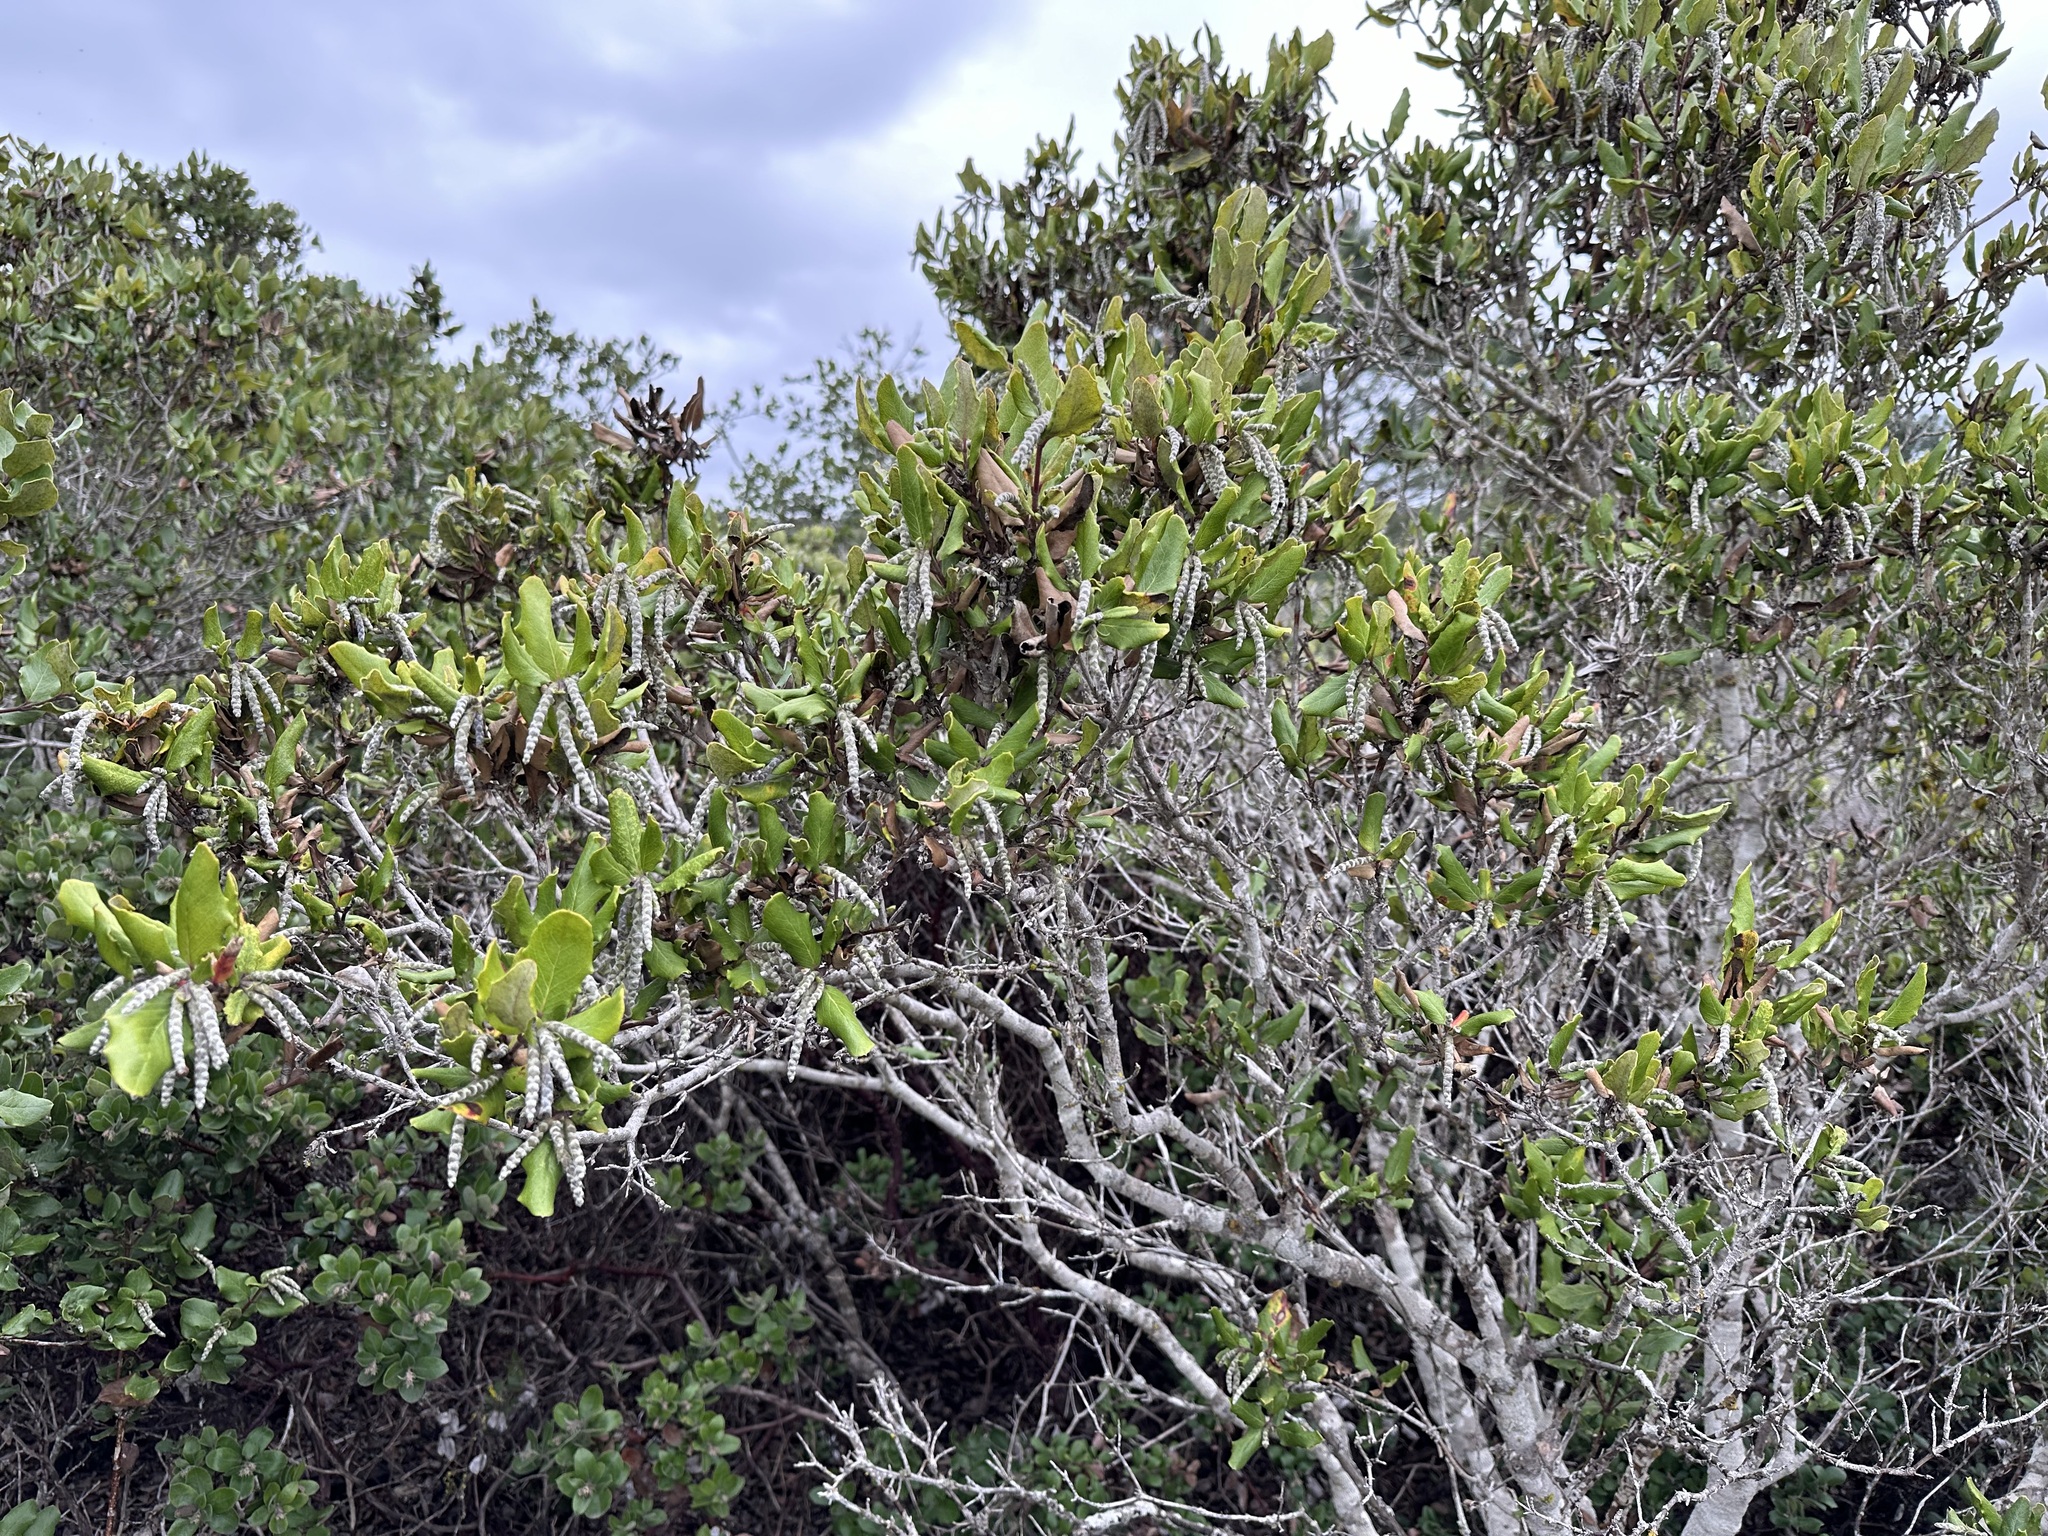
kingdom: Plantae
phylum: Tracheophyta
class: Magnoliopsida
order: Garryales
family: Garryaceae
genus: Garrya
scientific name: Garrya elliptica
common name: Silk-tassel
